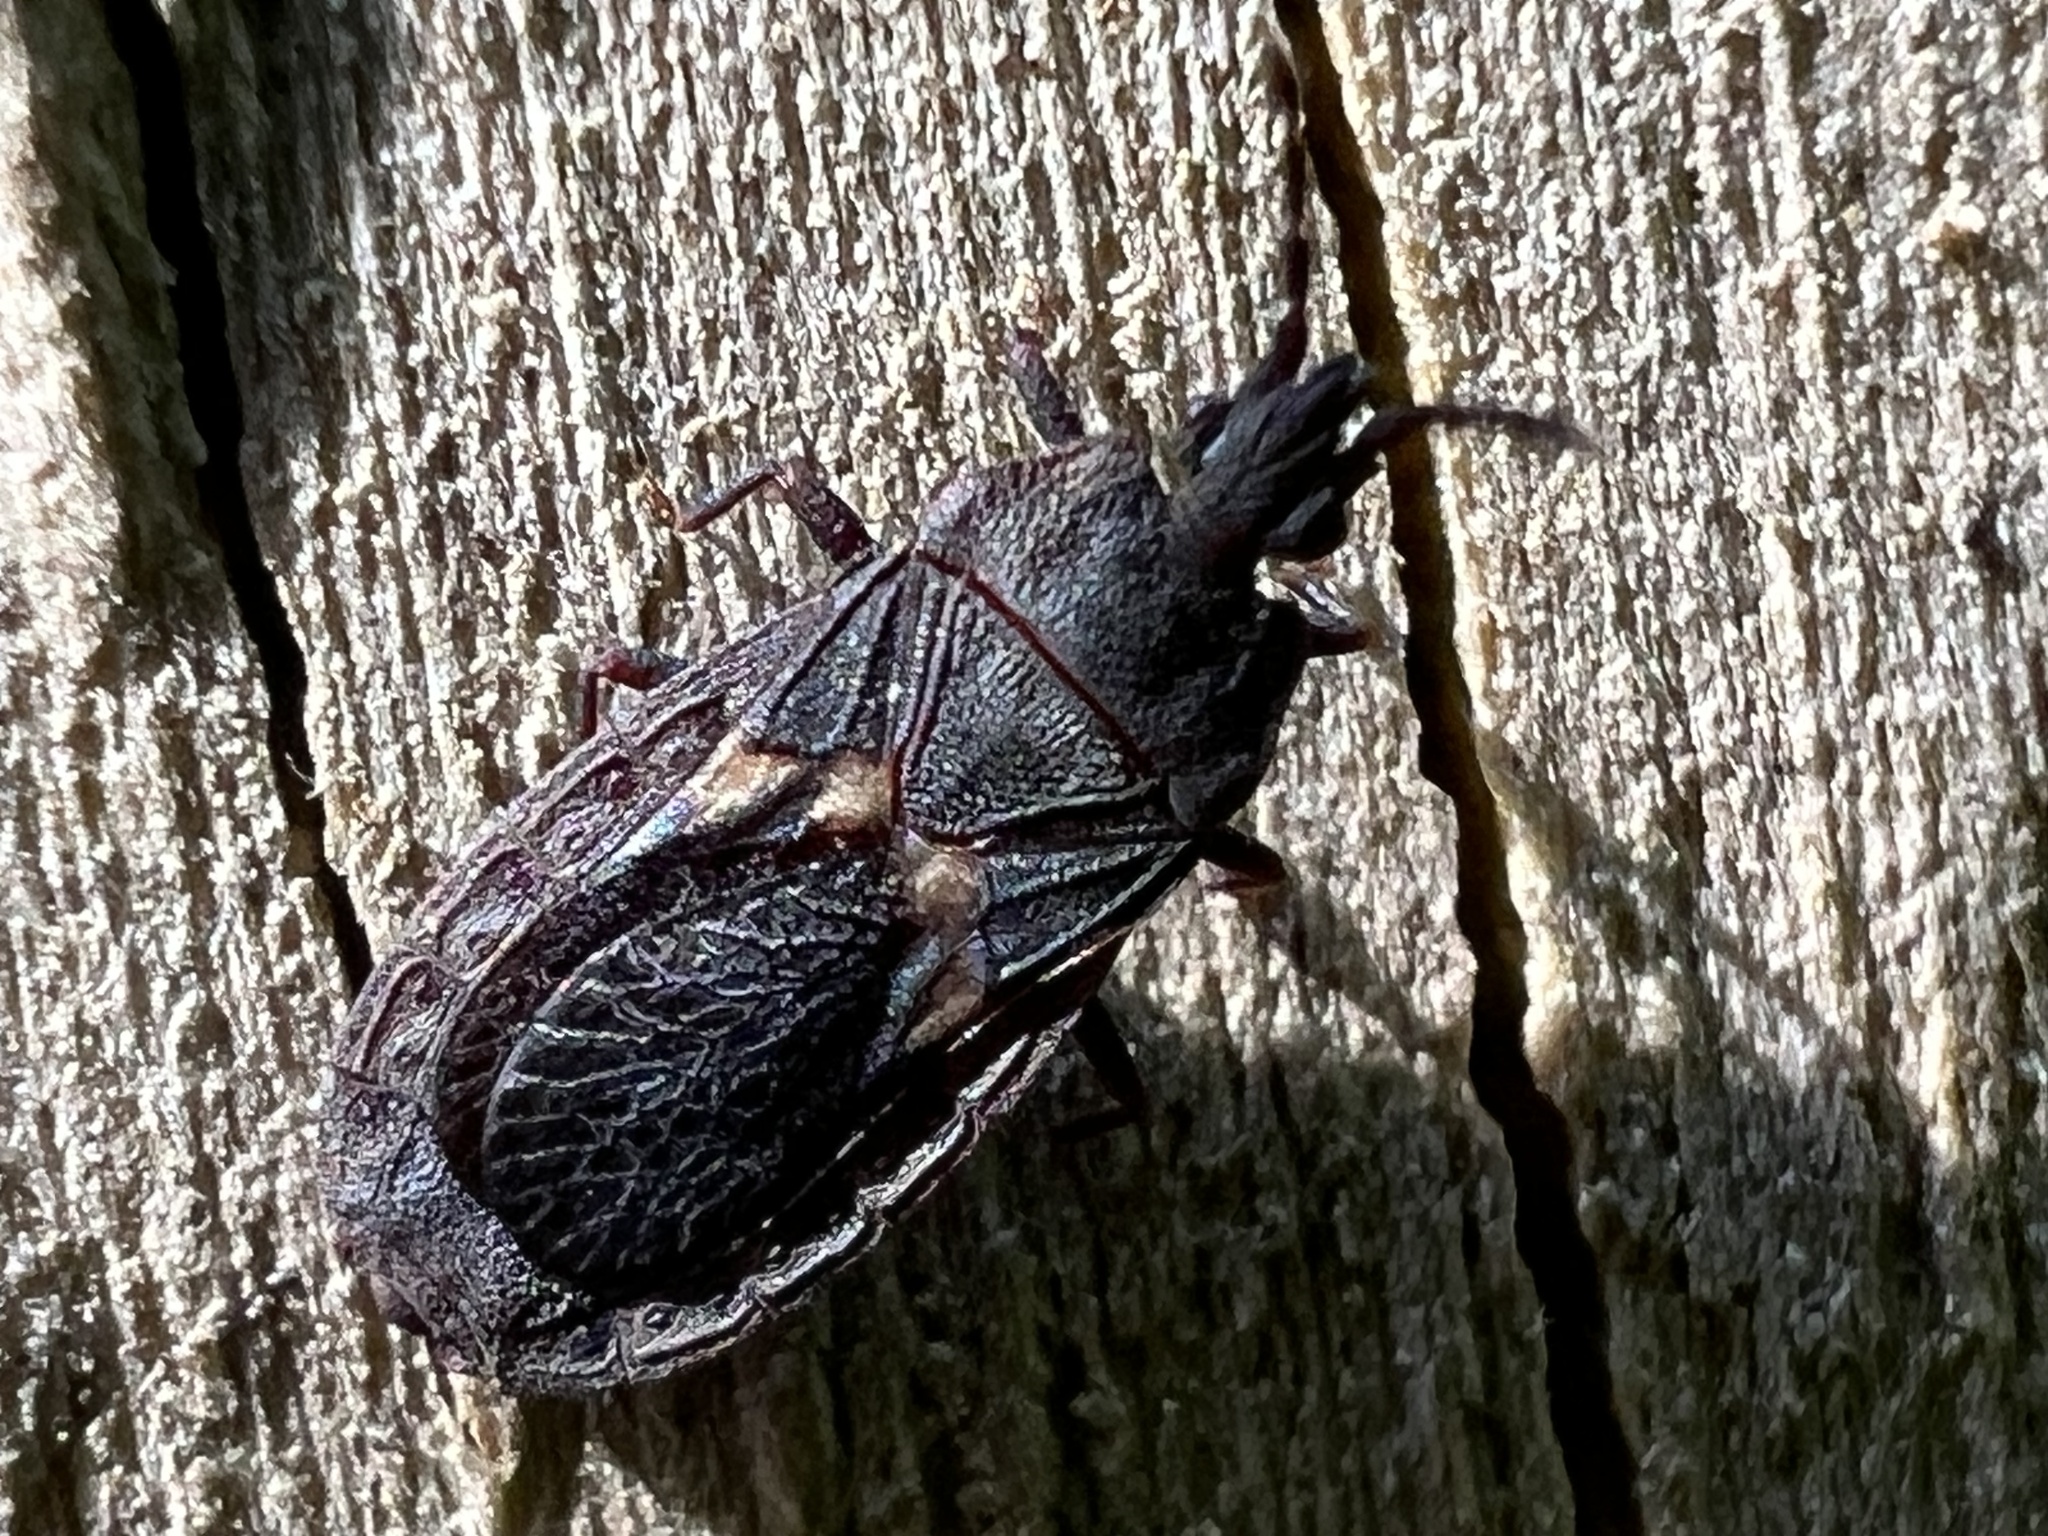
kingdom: Animalia
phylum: Arthropoda
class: Insecta
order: Hemiptera
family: Aradidae
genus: Neuroctenus
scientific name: Neuroctenus hopkinsi
